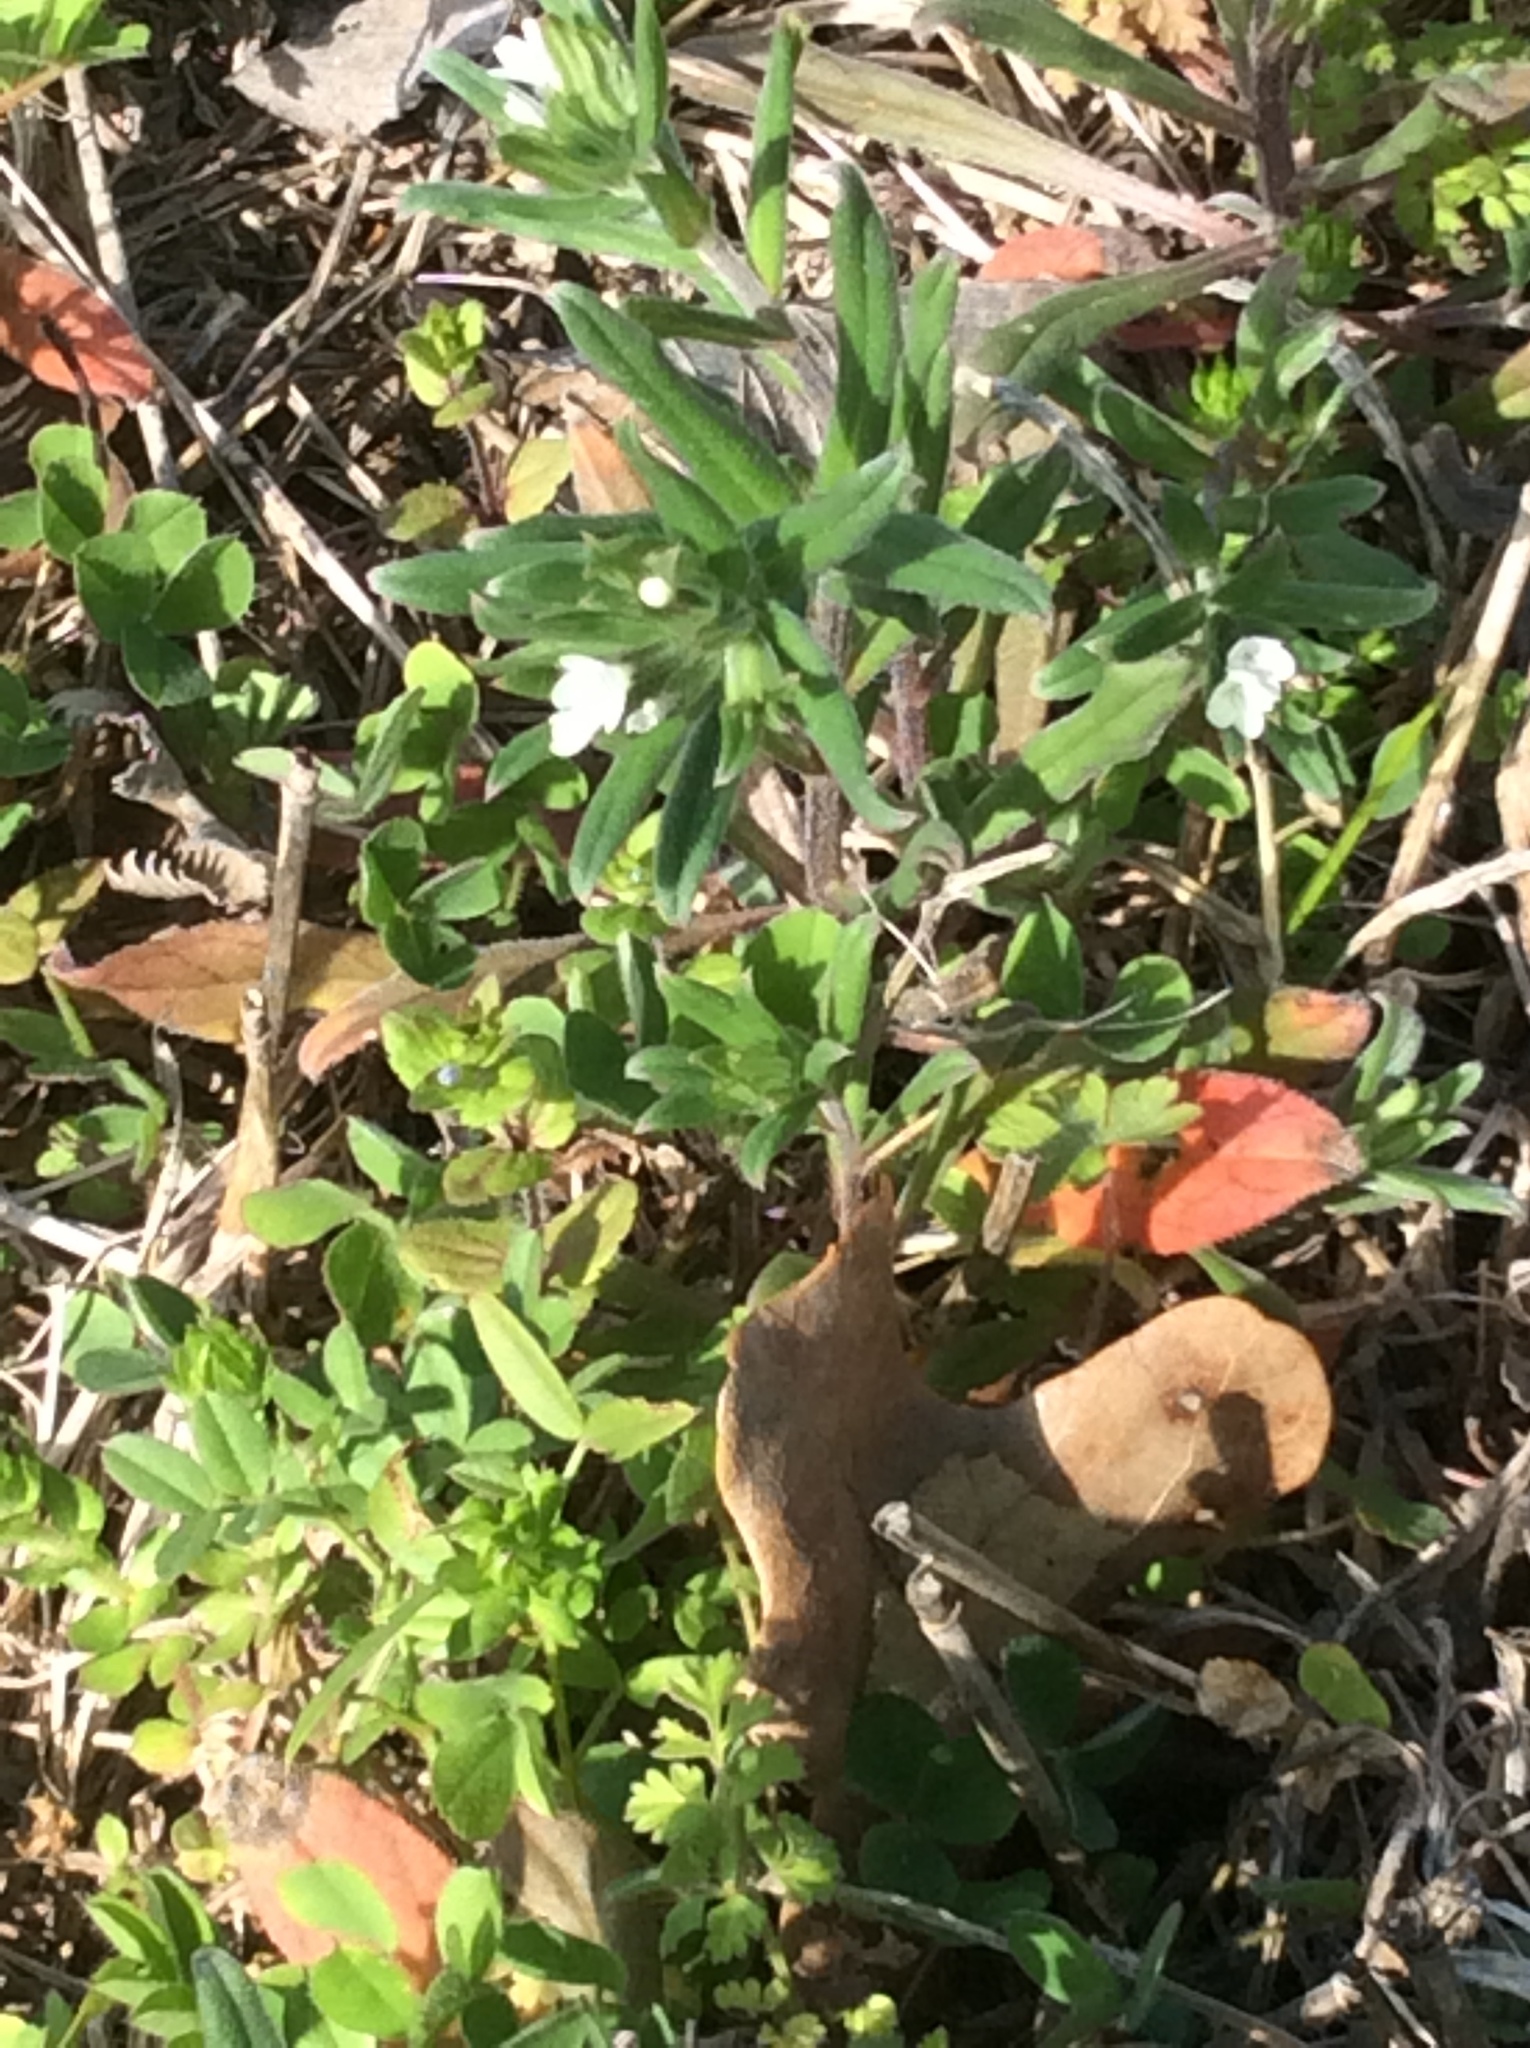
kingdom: Plantae
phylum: Tracheophyta
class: Magnoliopsida
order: Boraginales
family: Boraginaceae
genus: Buglossoides
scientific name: Buglossoides arvensis
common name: Corn gromwell
